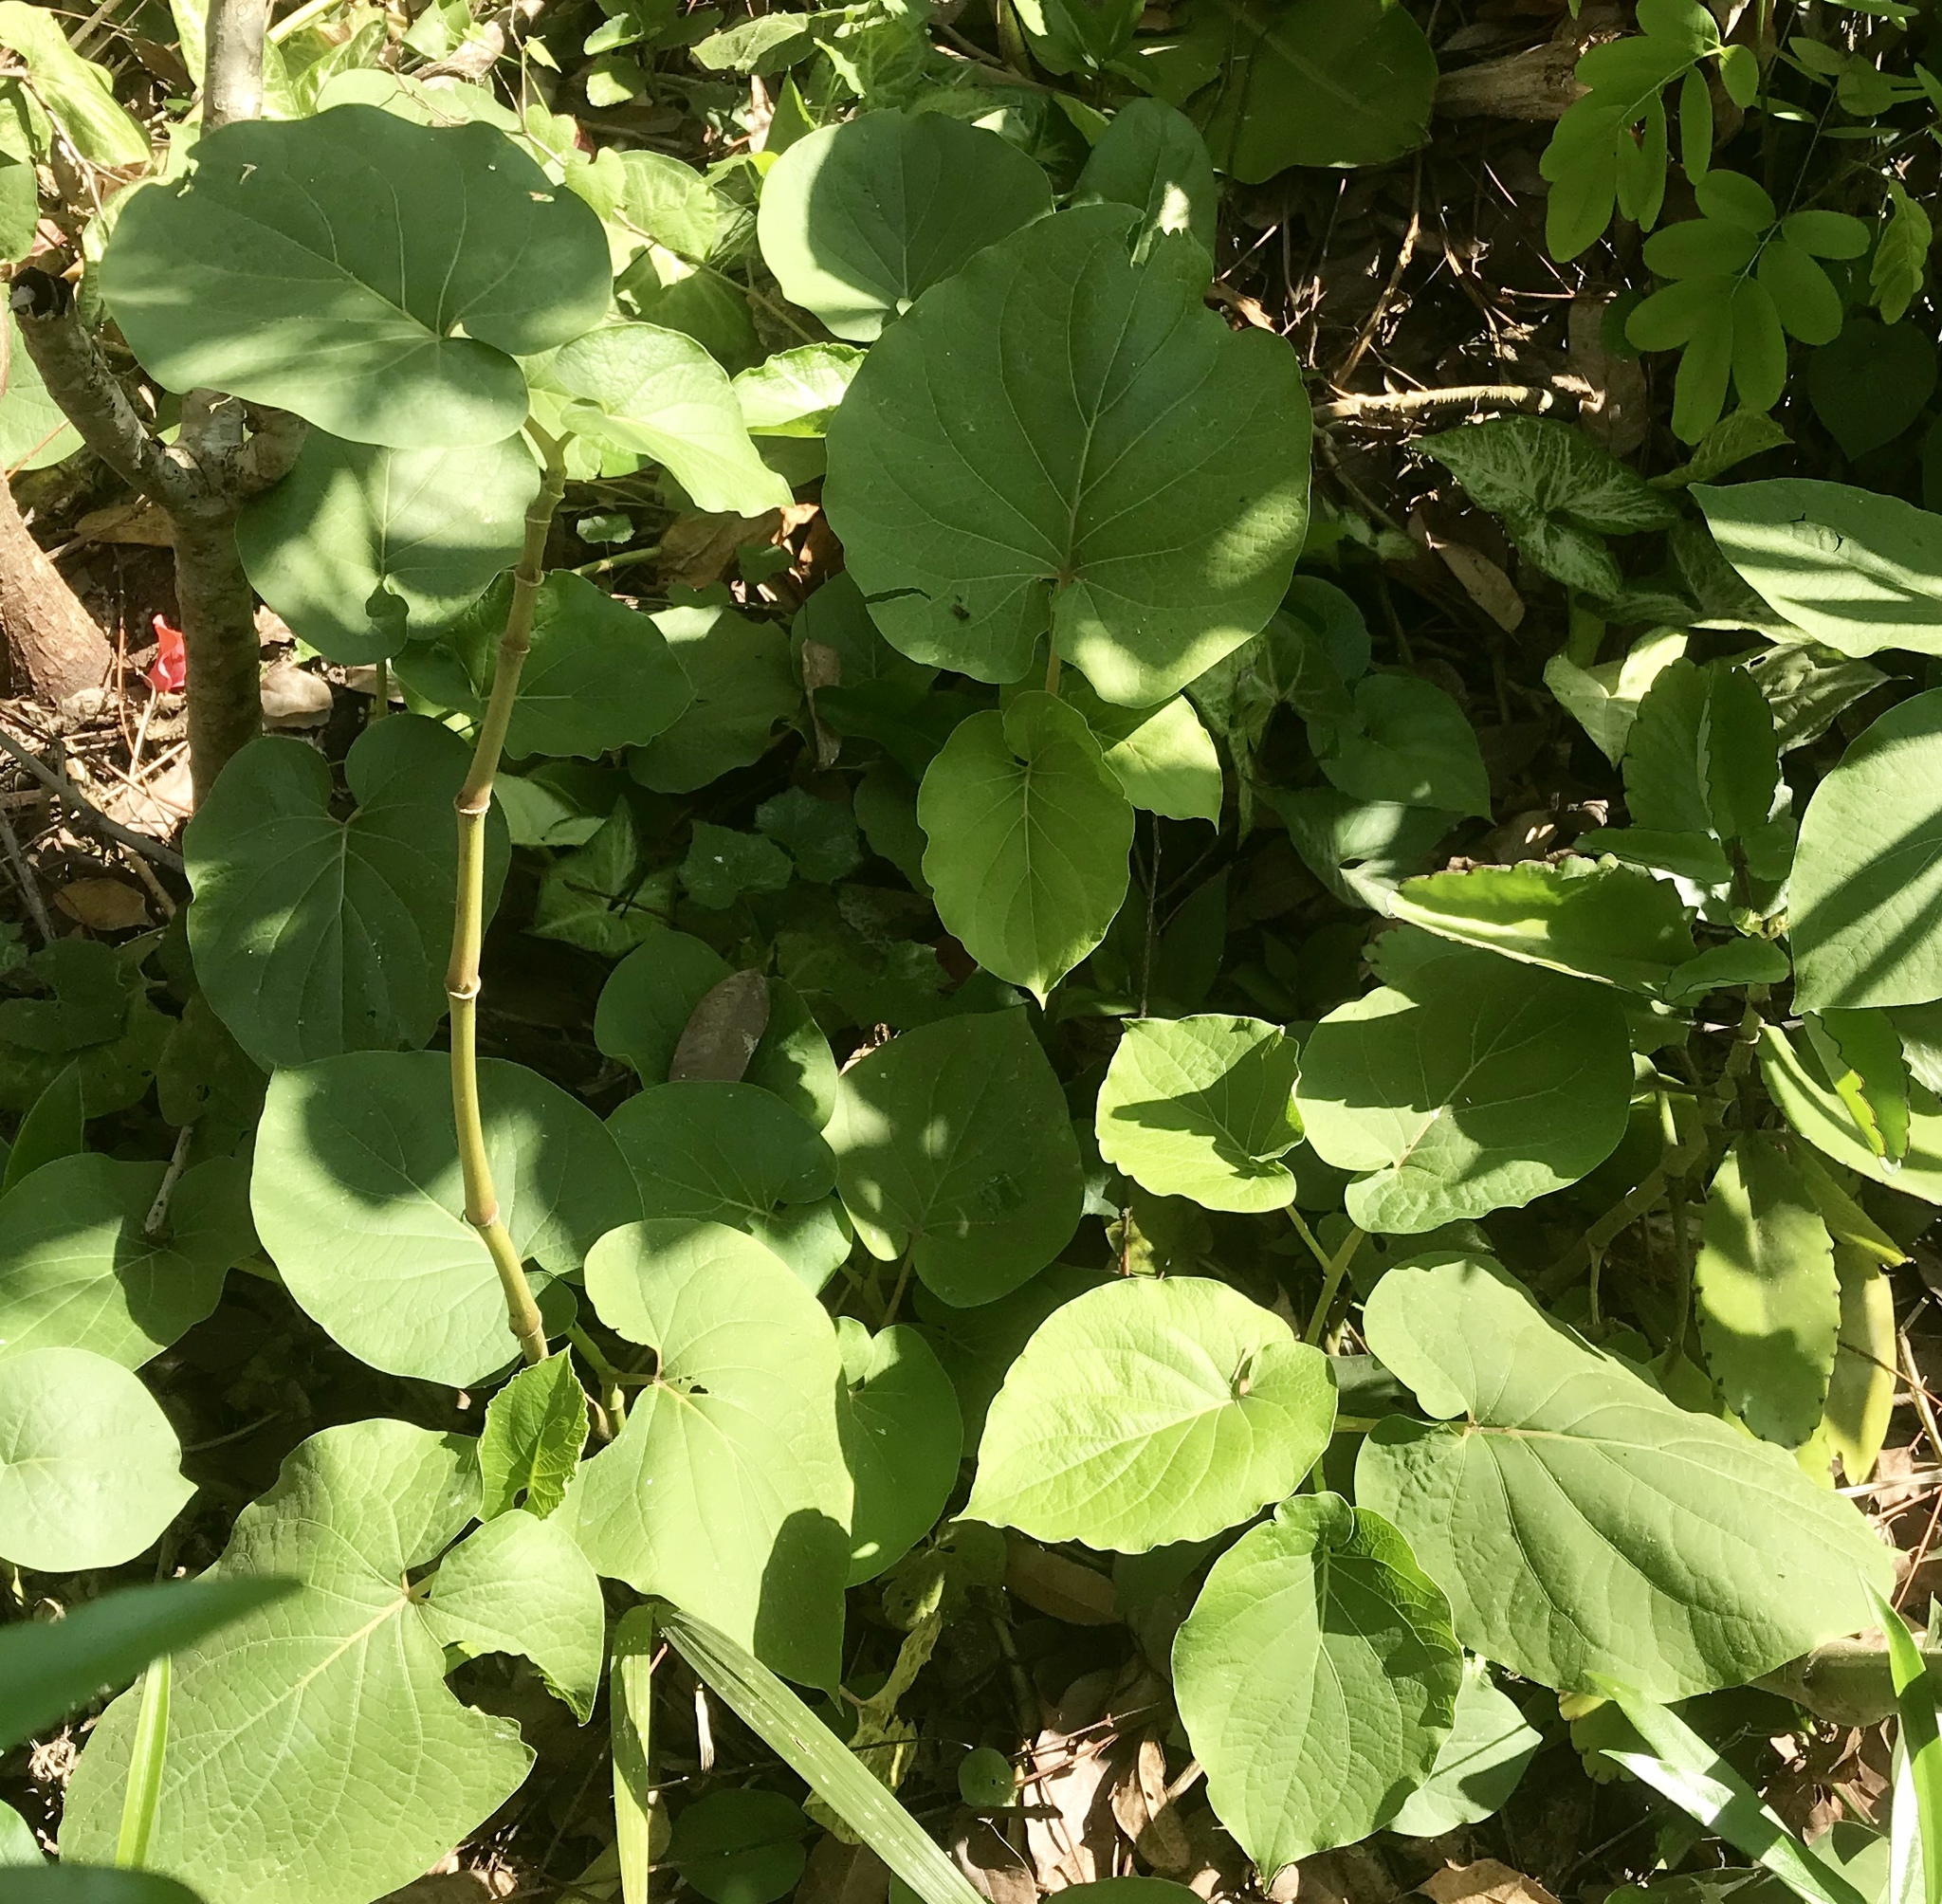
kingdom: Plantae
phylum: Tracheophyta
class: Magnoliopsida
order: Piperales
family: Piperaceae
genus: Piper
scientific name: Piper auritum
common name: Vera cruz pepper
